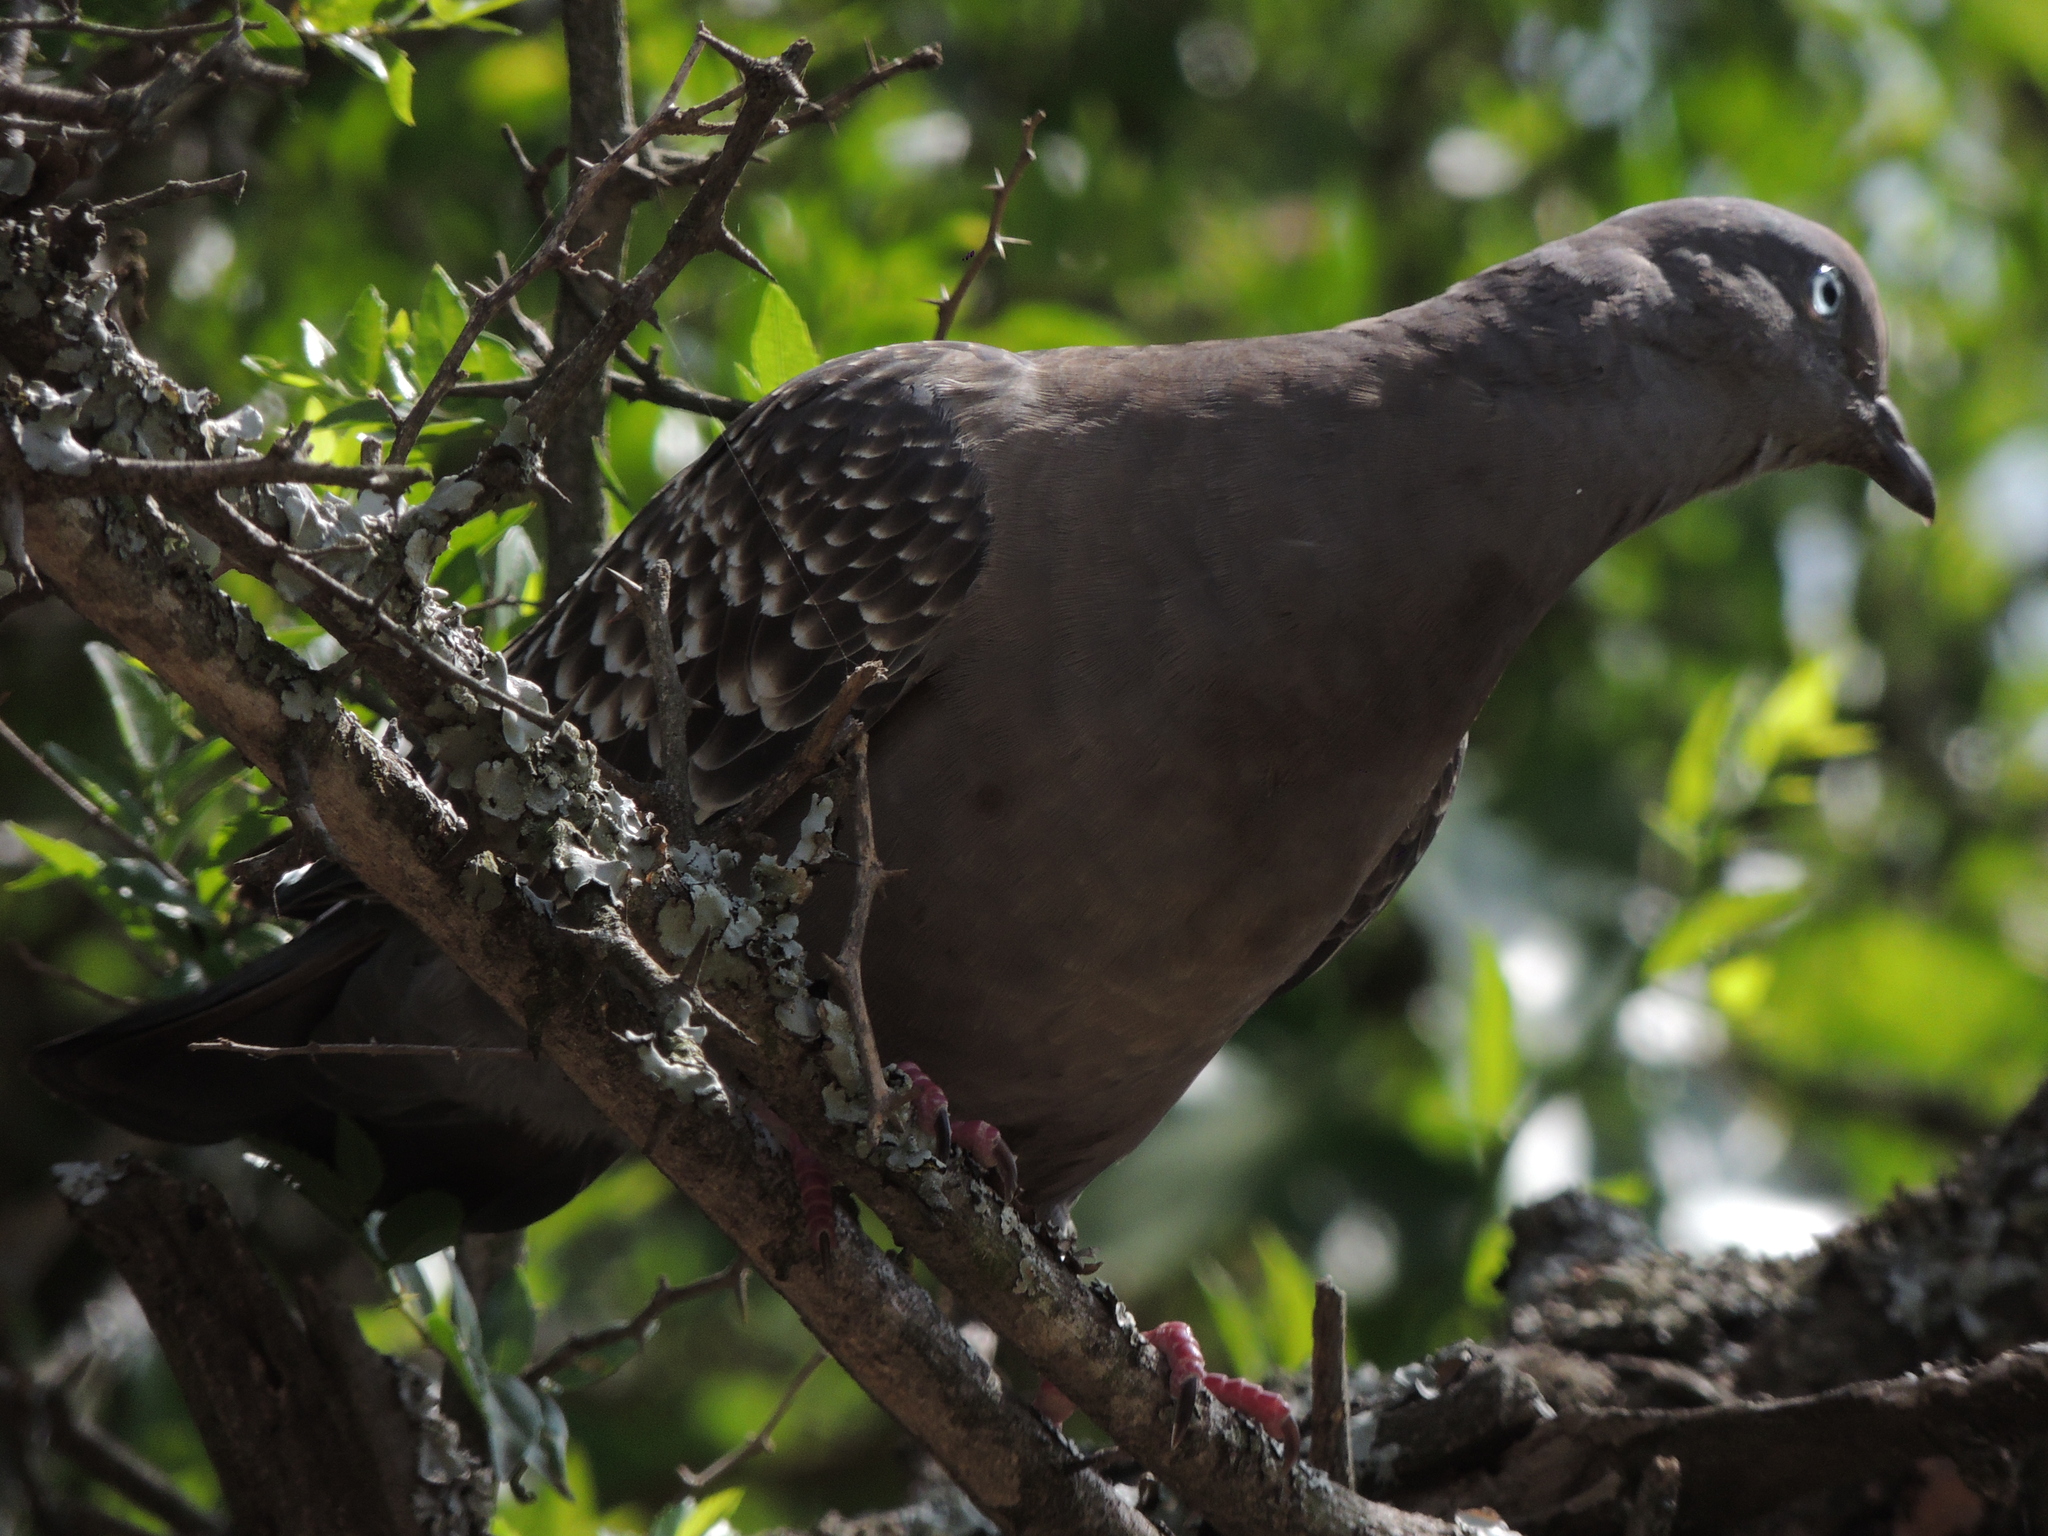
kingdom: Animalia
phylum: Chordata
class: Aves
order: Columbiformes
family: Columbidae
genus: Patagioenas
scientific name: Patagioenas maculosa
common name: Spot-winged pigeon
